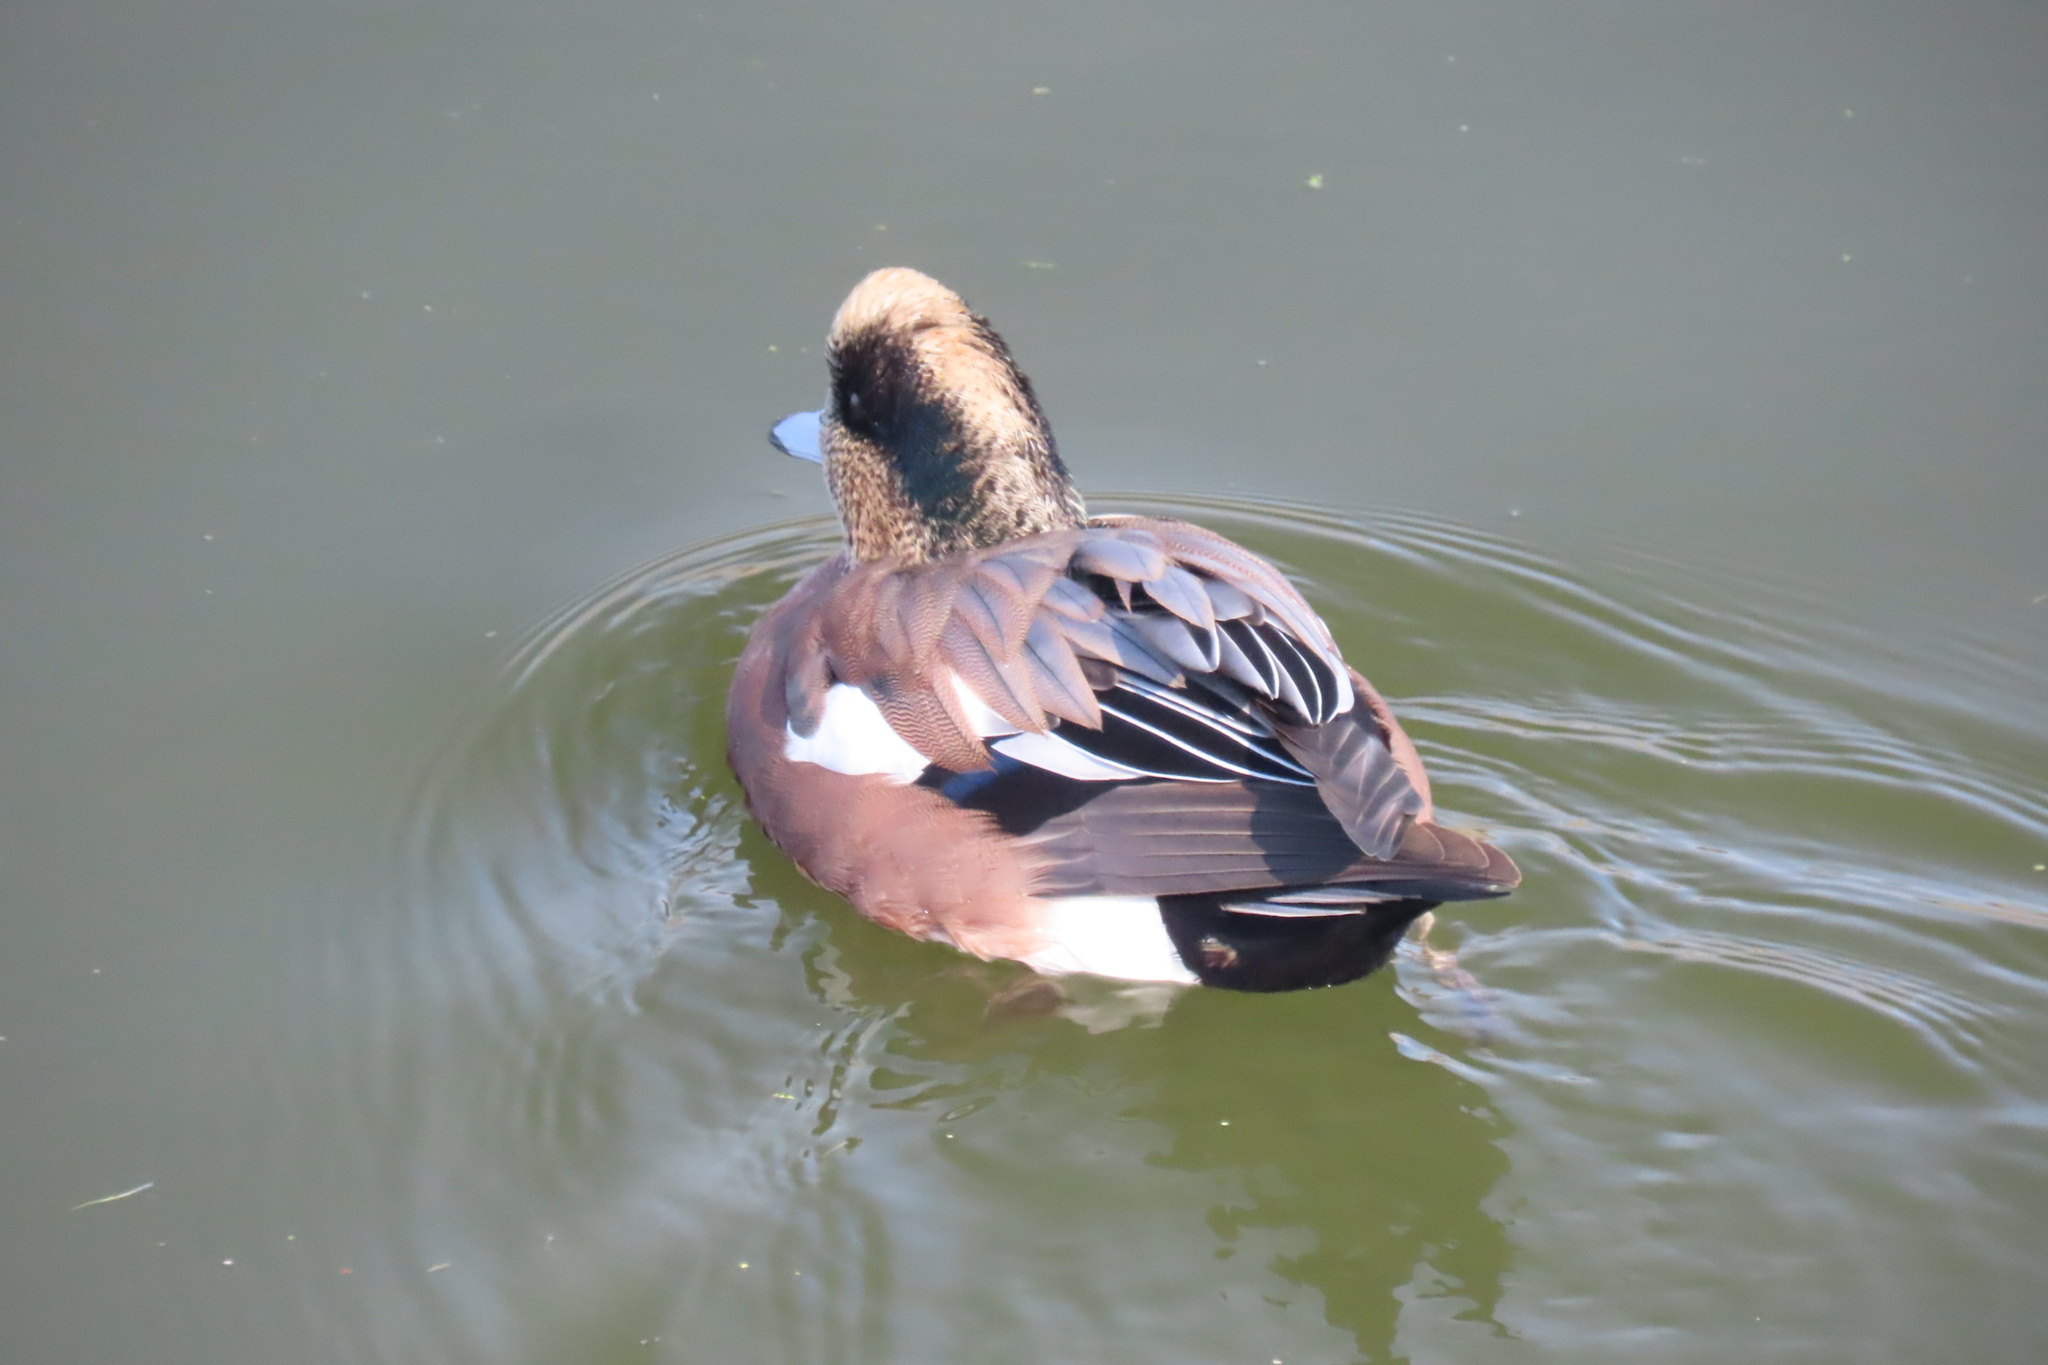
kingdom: Animalia
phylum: Chordata
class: Aves
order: Anseriformes
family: Anatidae
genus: Mareca
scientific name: Mareca americana
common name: American wigeon
